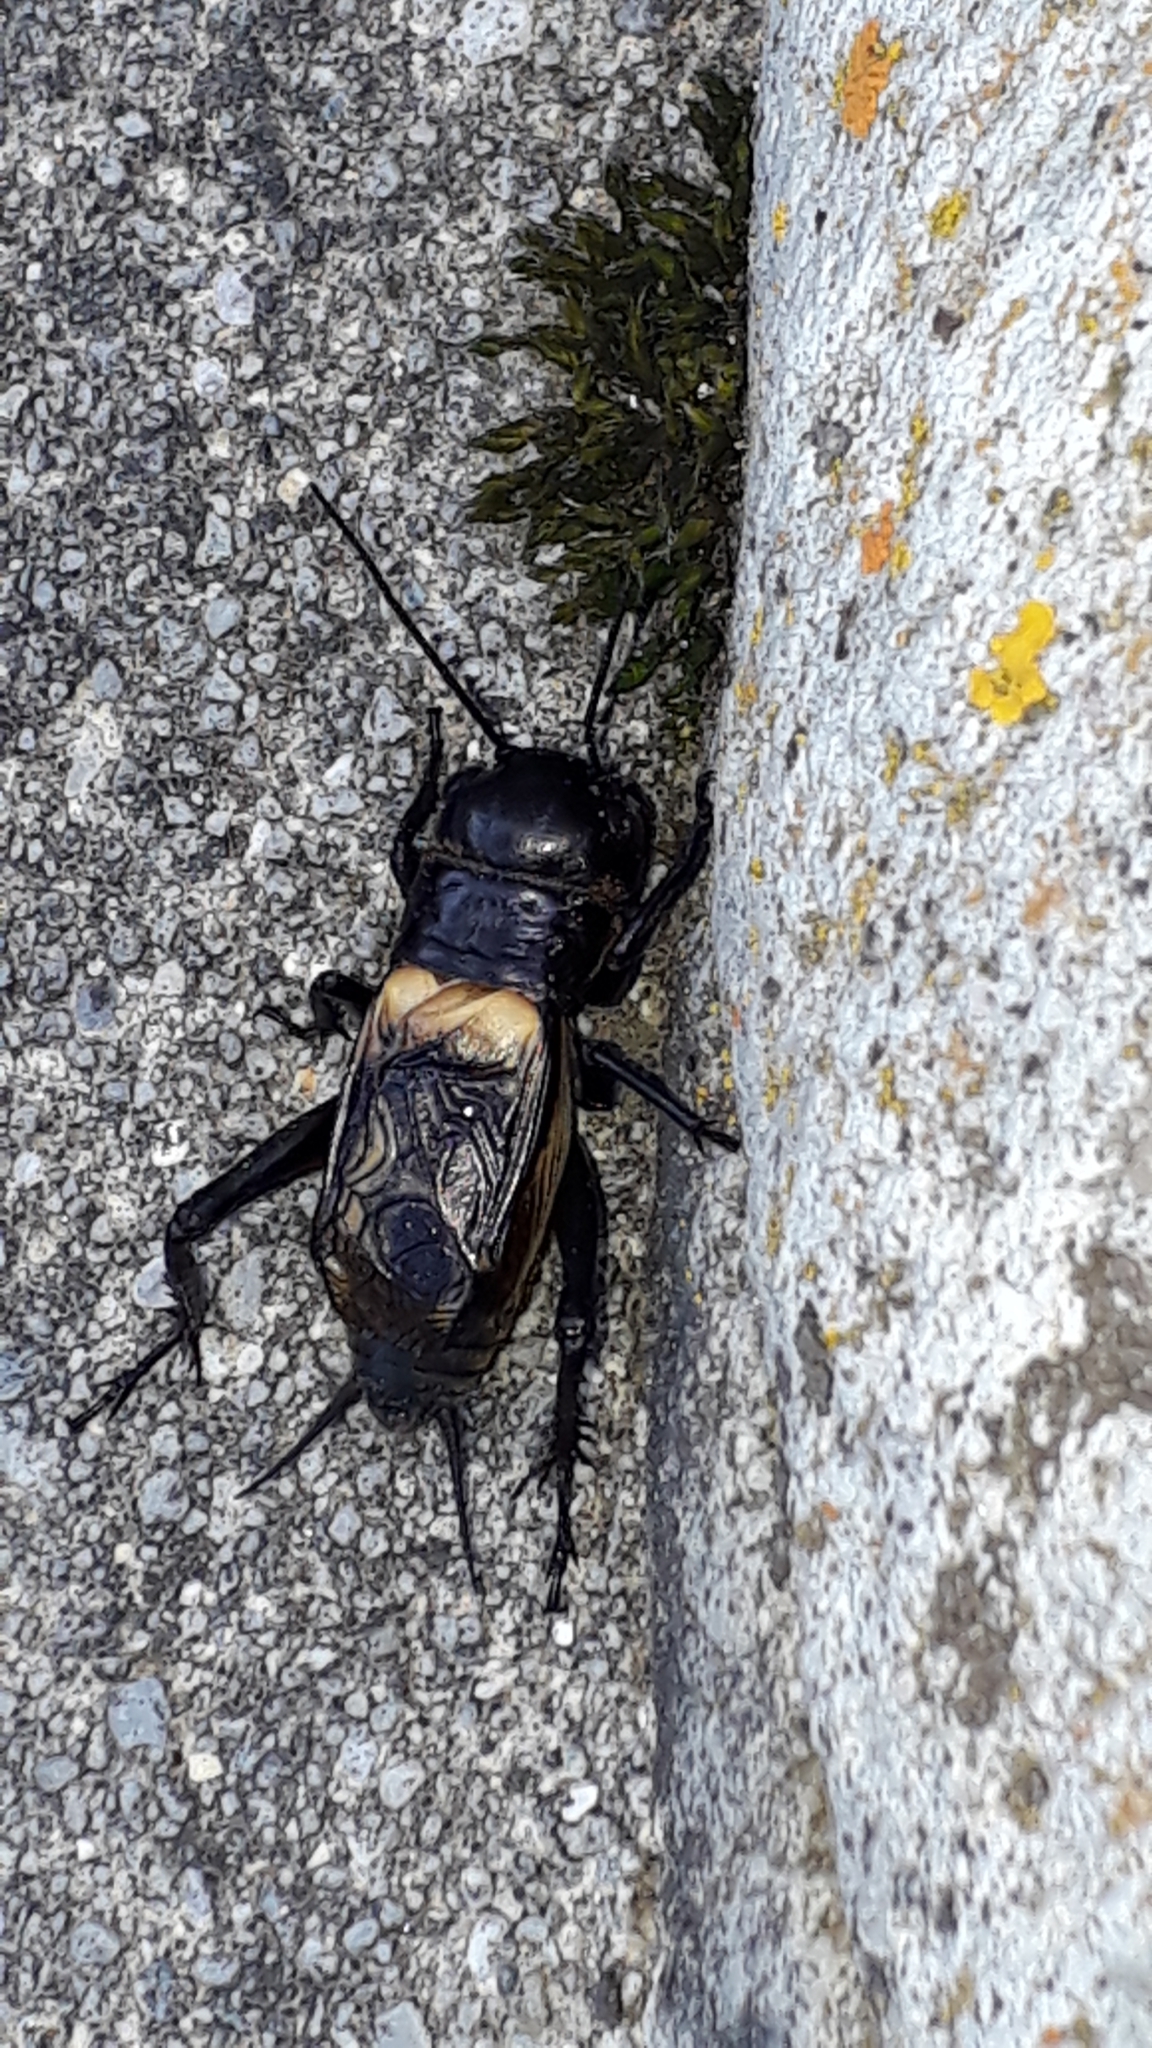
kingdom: Animalia
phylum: Arthropoda
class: Insecta
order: Orthoptera
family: Gryllidae
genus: Gryllus
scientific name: Gryllus campestris
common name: Field cricket
